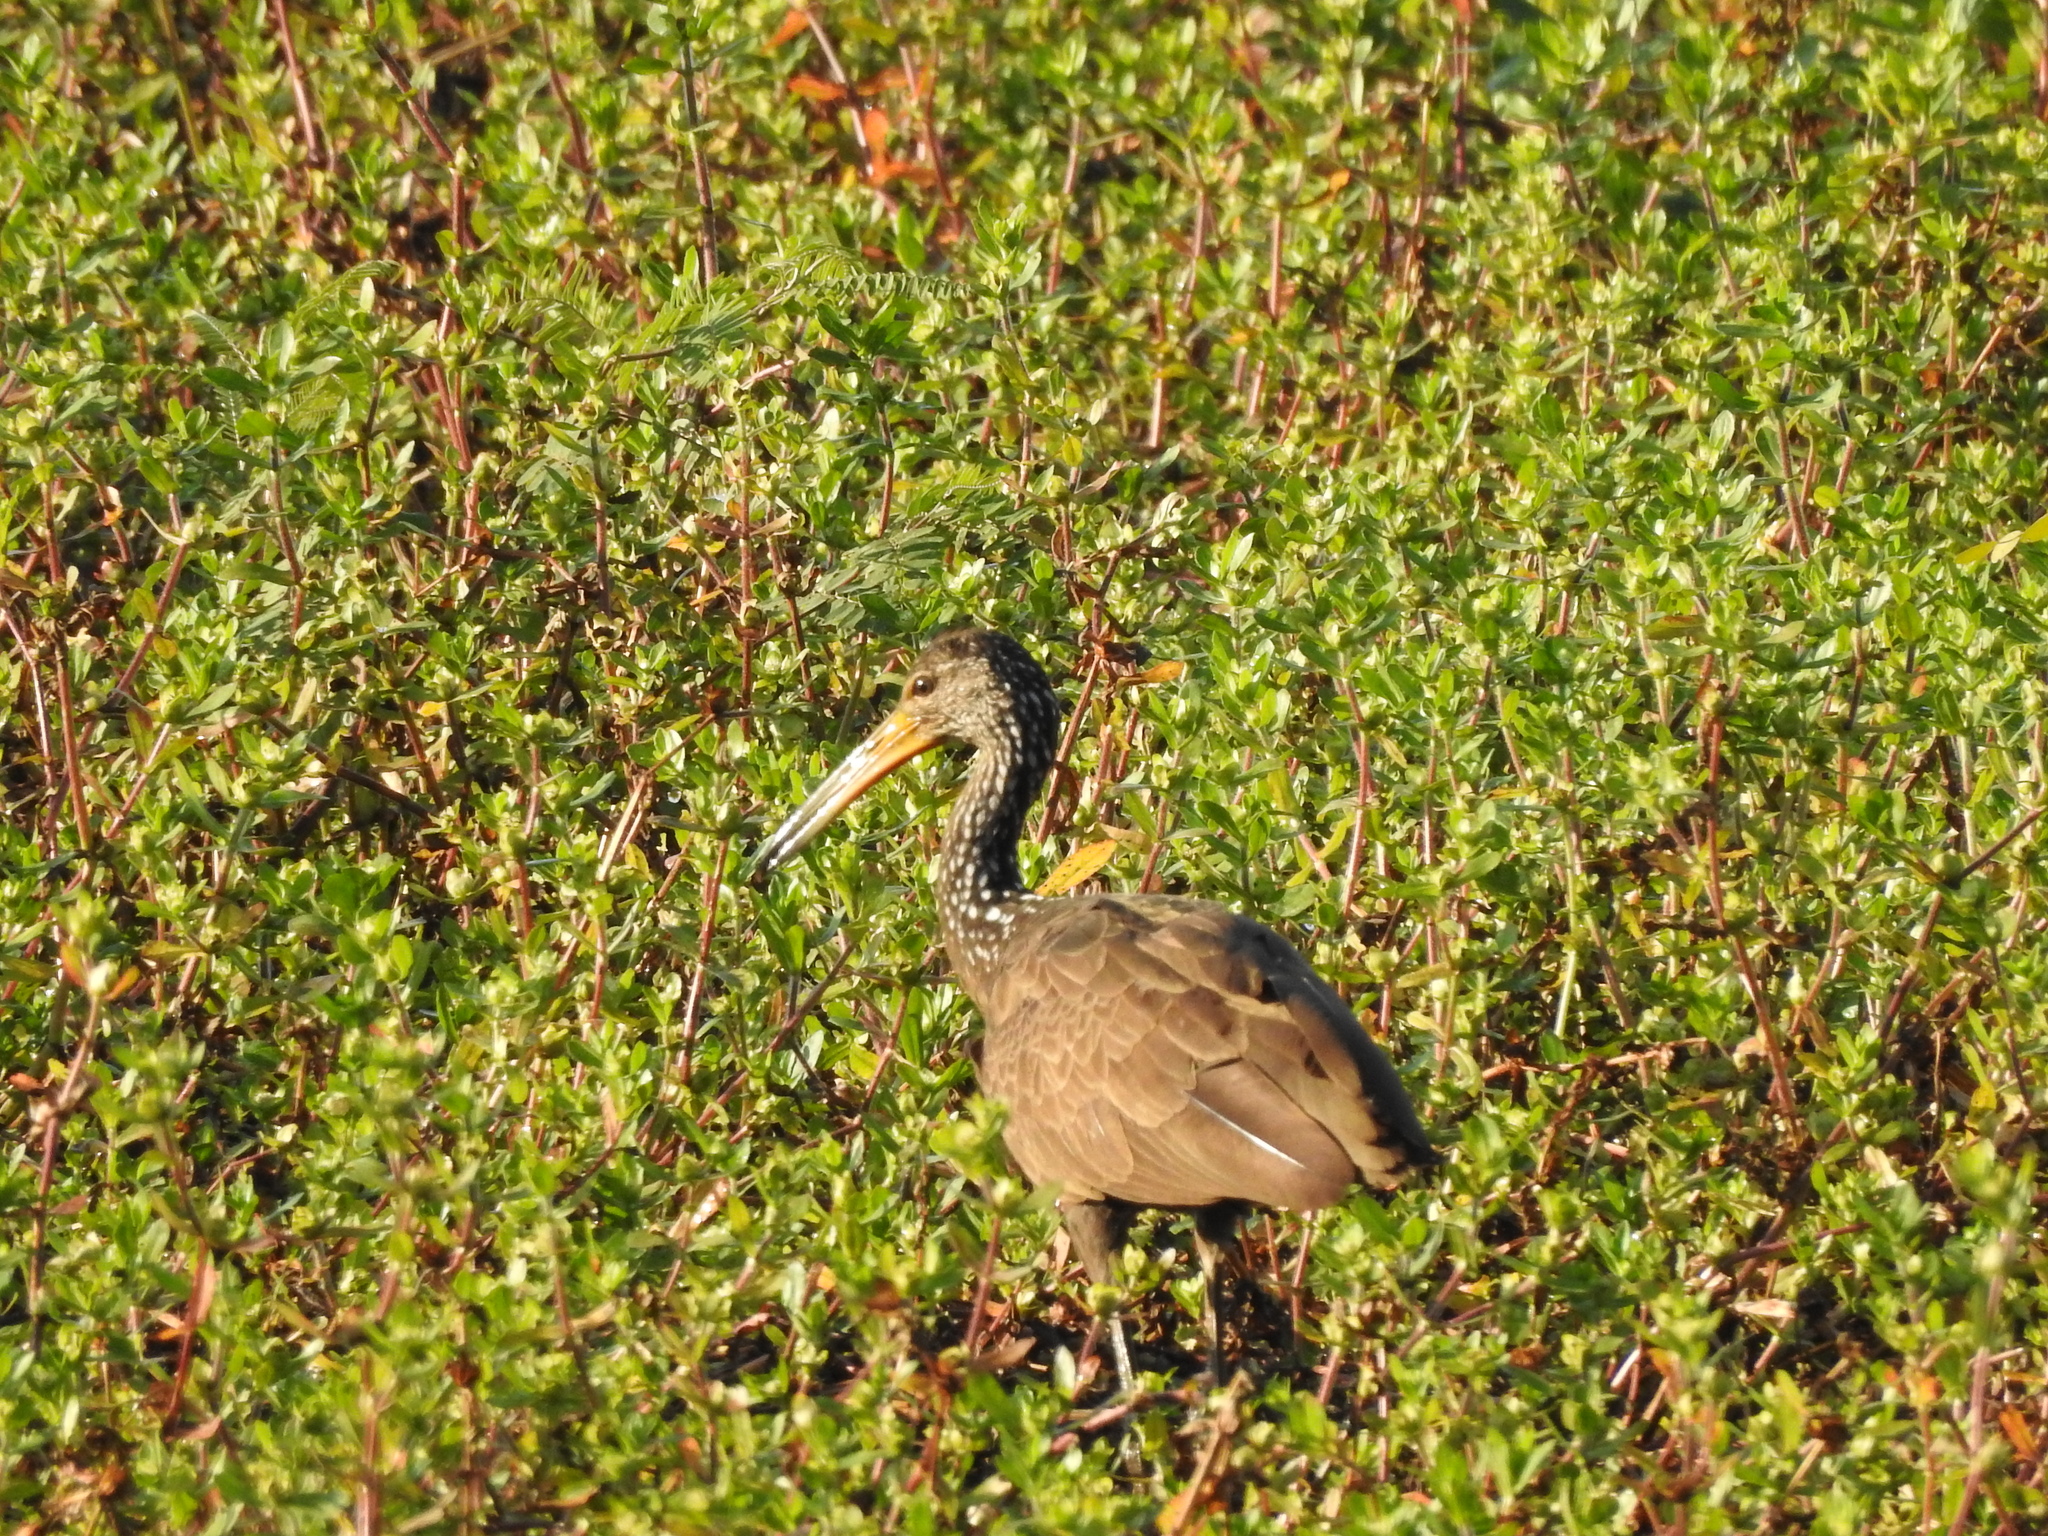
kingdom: Animalia
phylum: Chordata
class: Aves
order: Gruiformes
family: Aramidae
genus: Aramus
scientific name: Aramus guarauna
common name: Limpkin
